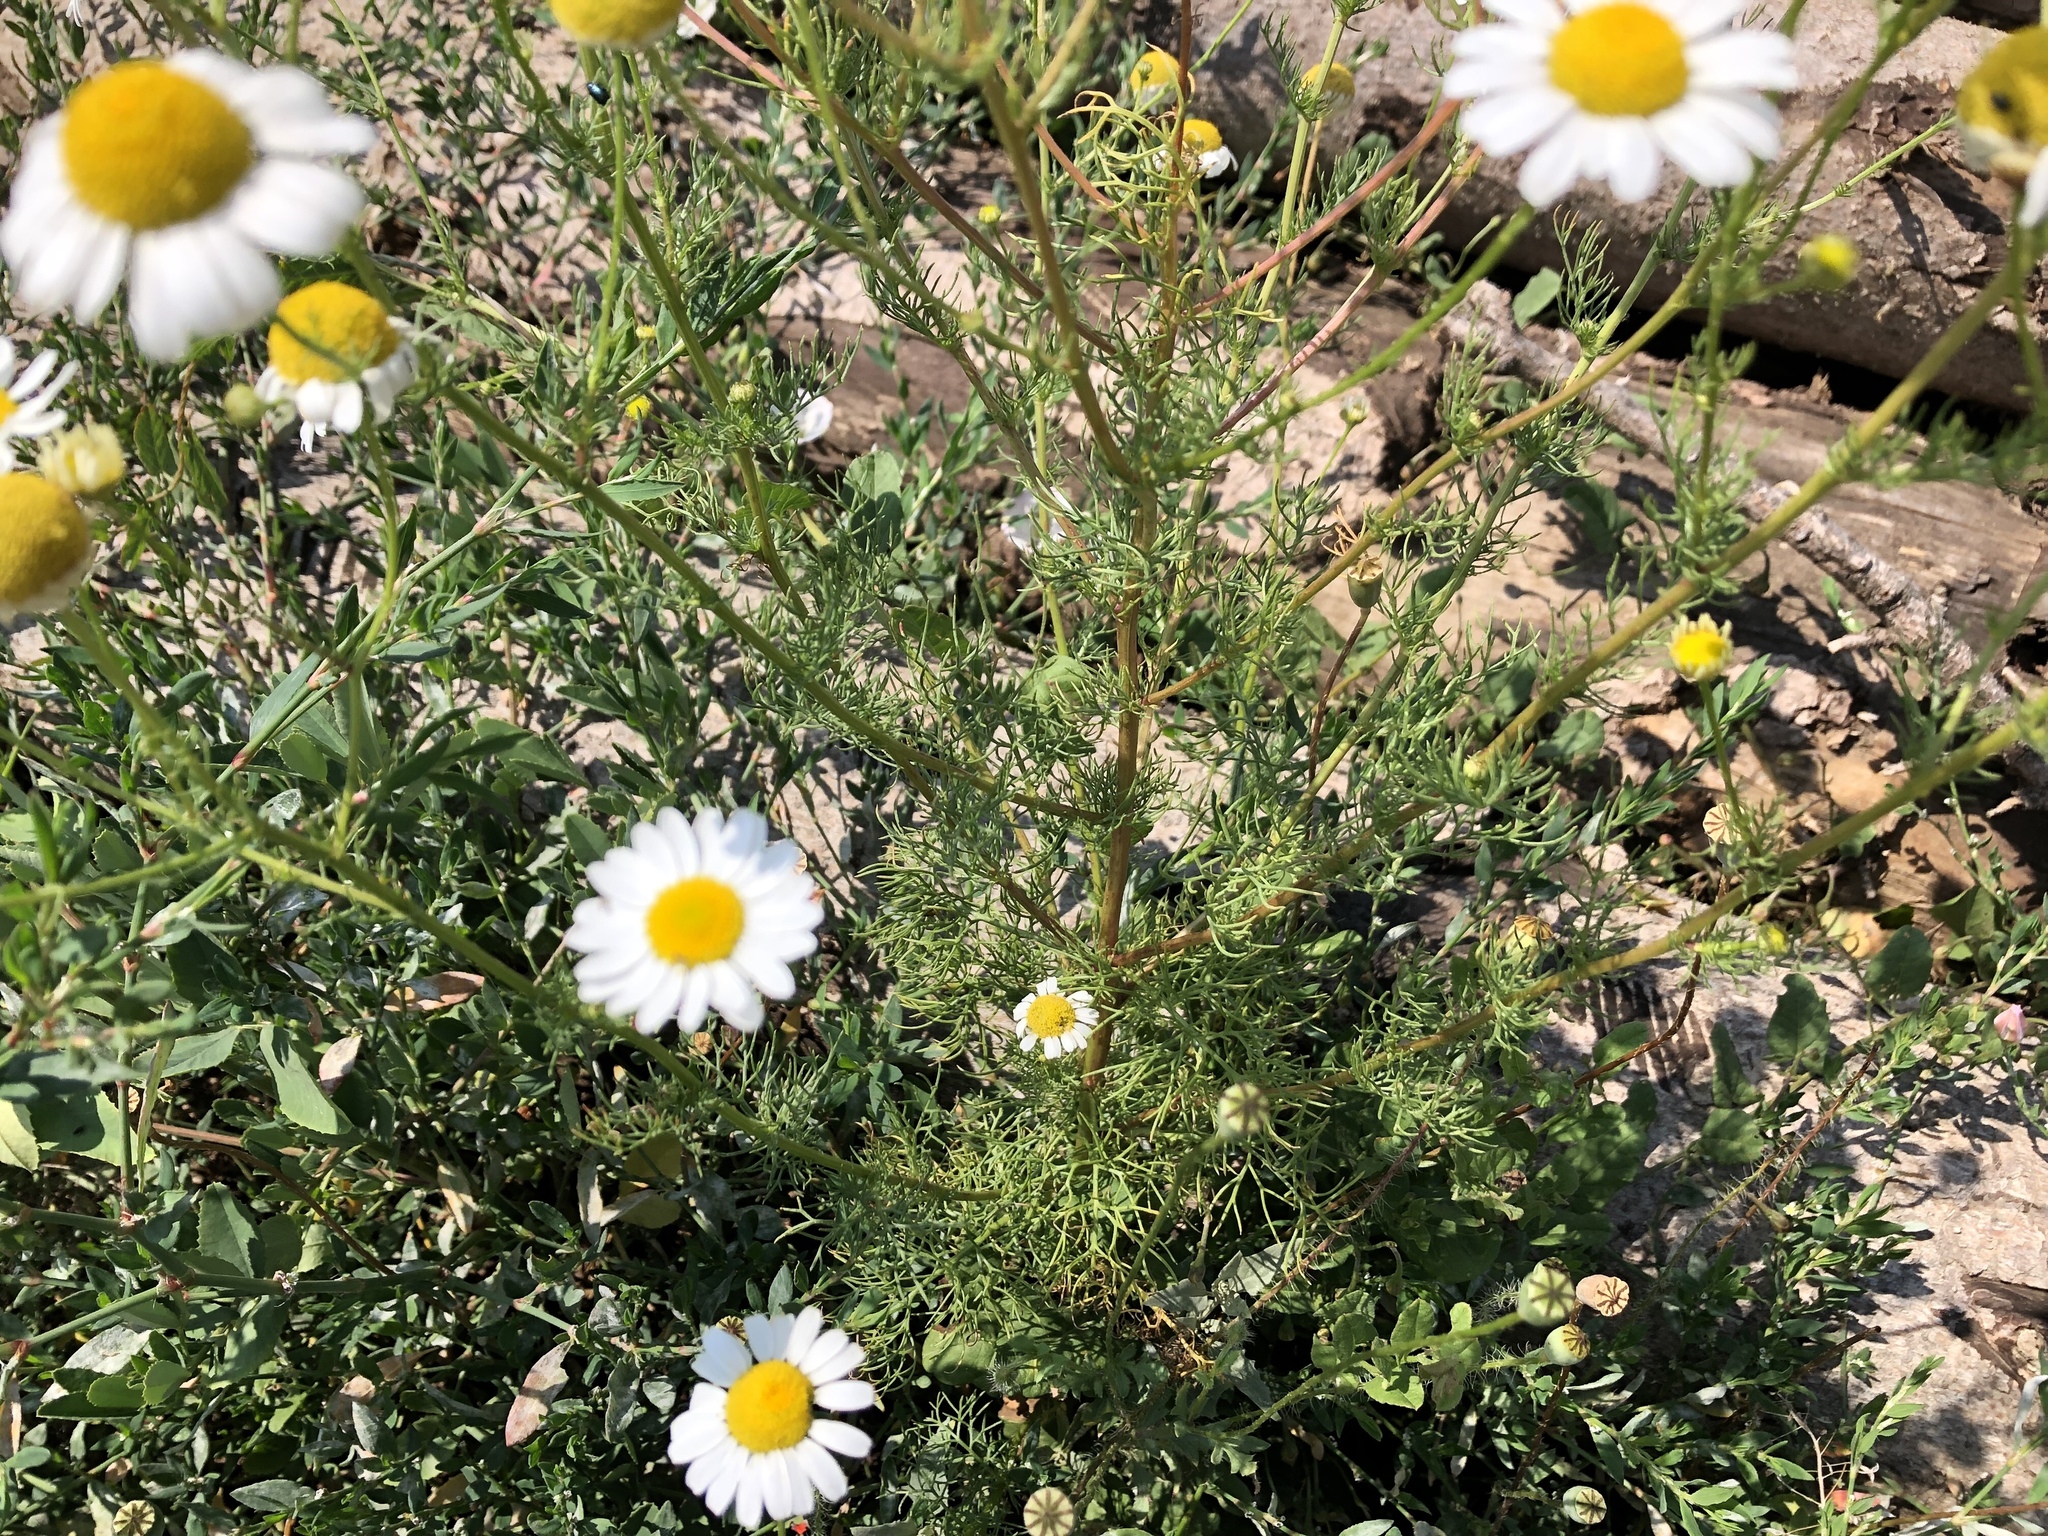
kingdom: Plantae
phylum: Tracheophyta
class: Magnoliopsida
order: Asterales
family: Asteraceae
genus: Tripleurospermum
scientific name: Tripleurospermum inodorum
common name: Scentless mayweed
